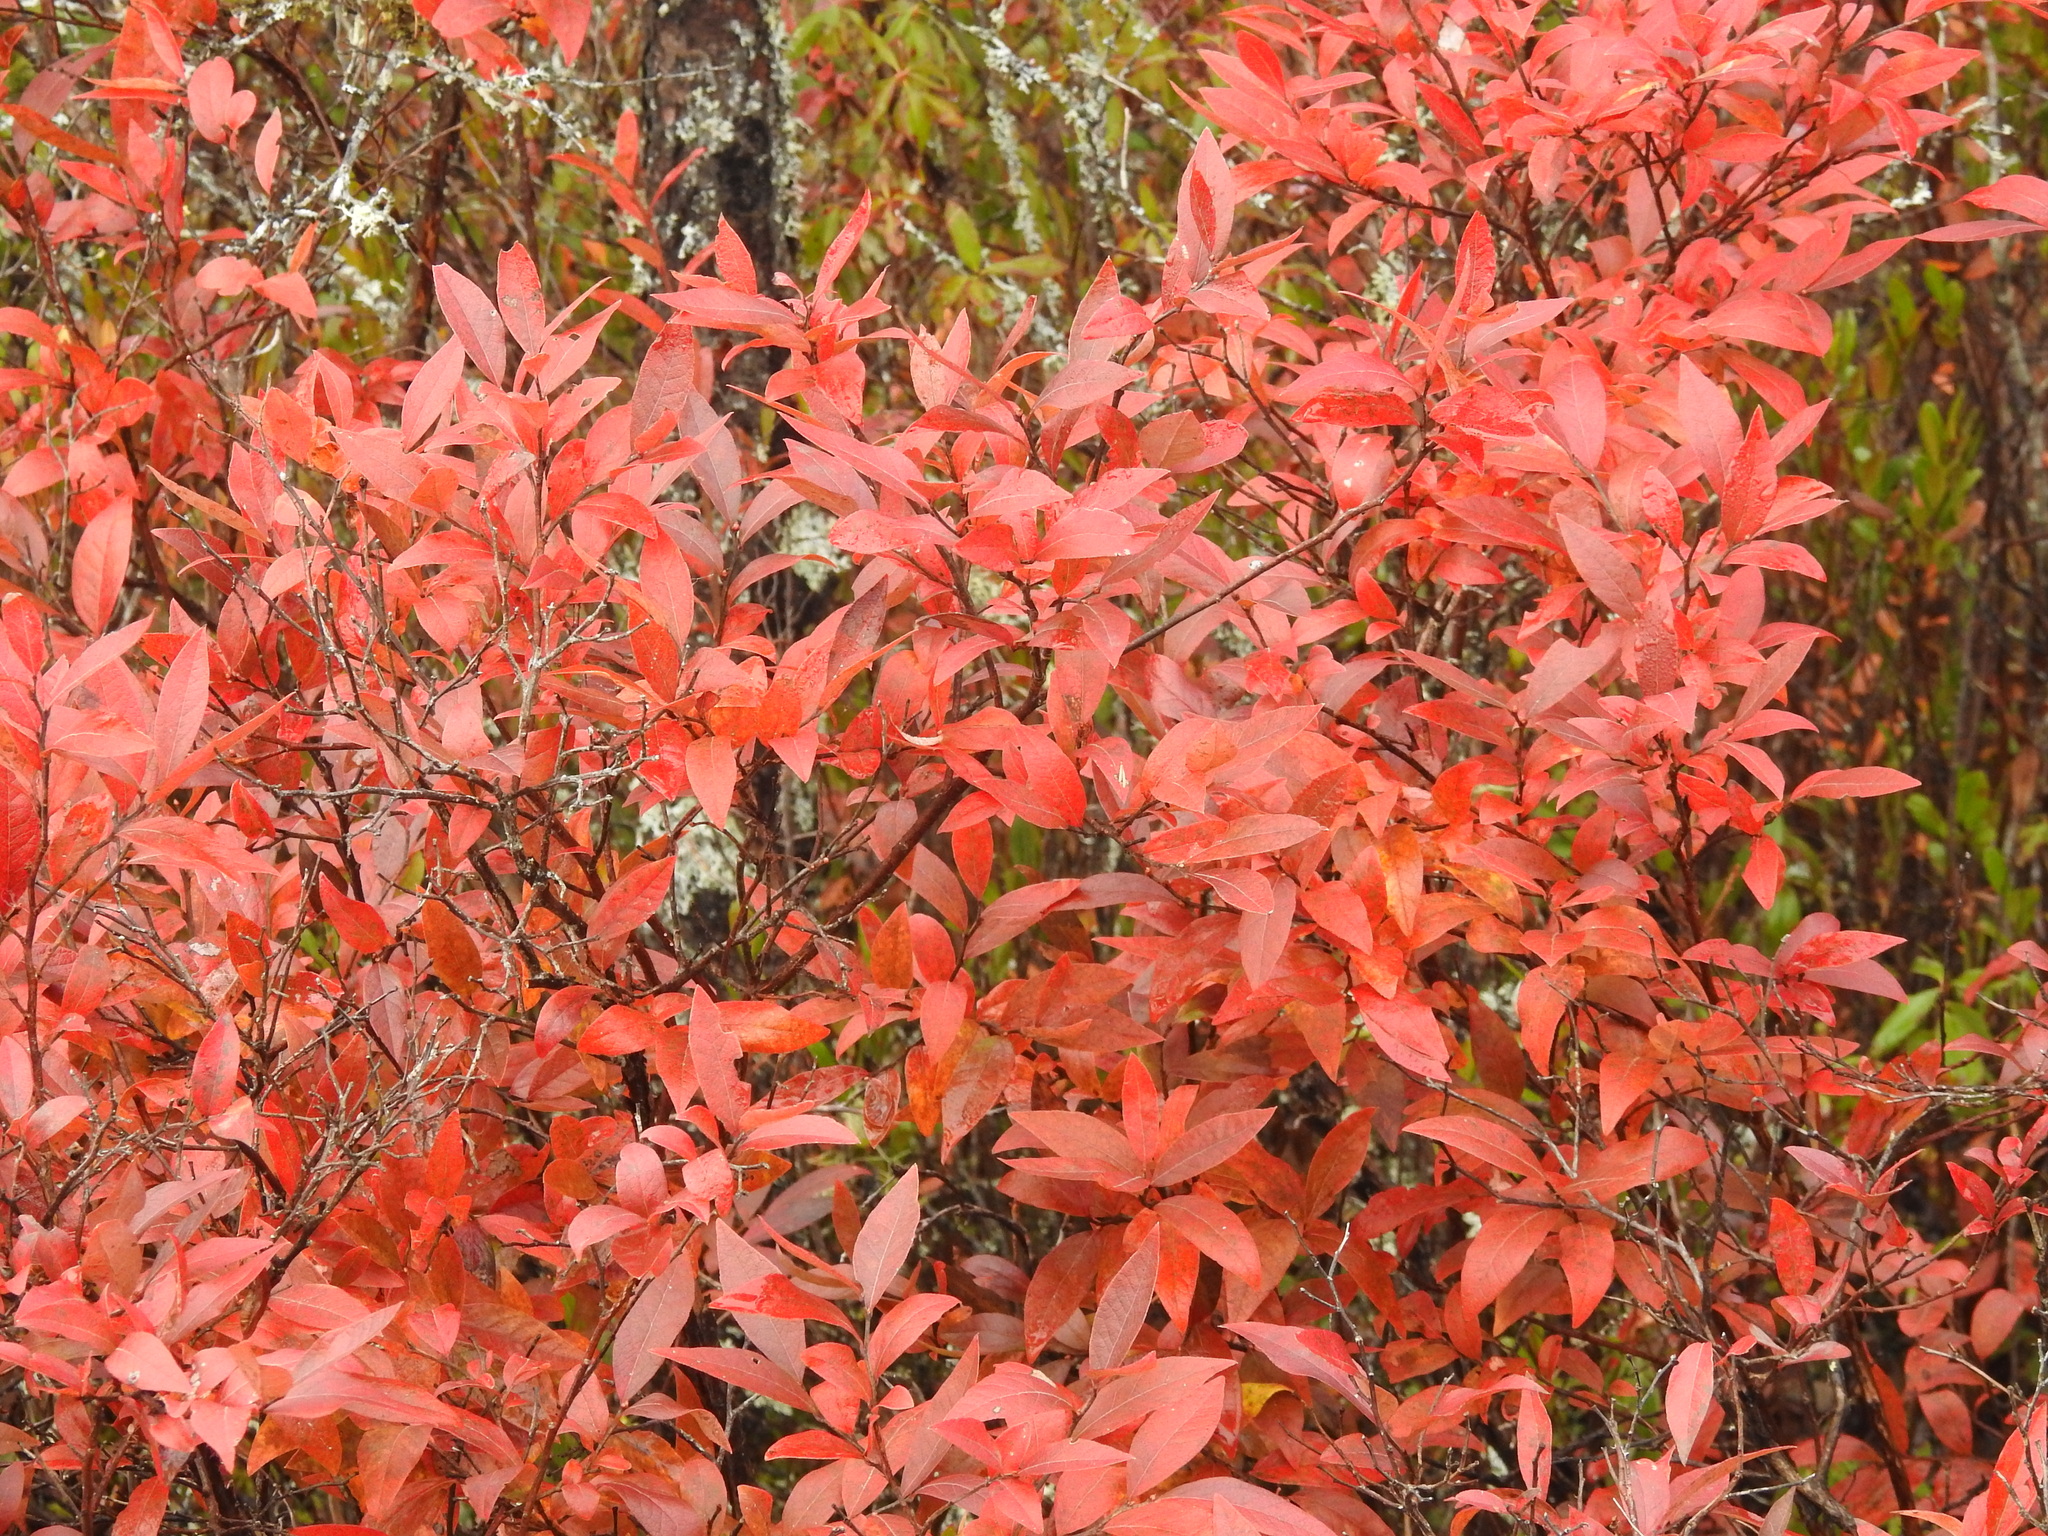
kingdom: Plantae
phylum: Tracheophyta
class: Magnoliopsida
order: Ericales
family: Ericaceae
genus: Gaylussacia
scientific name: Gaylussacia baccata
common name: Black huckleberry
